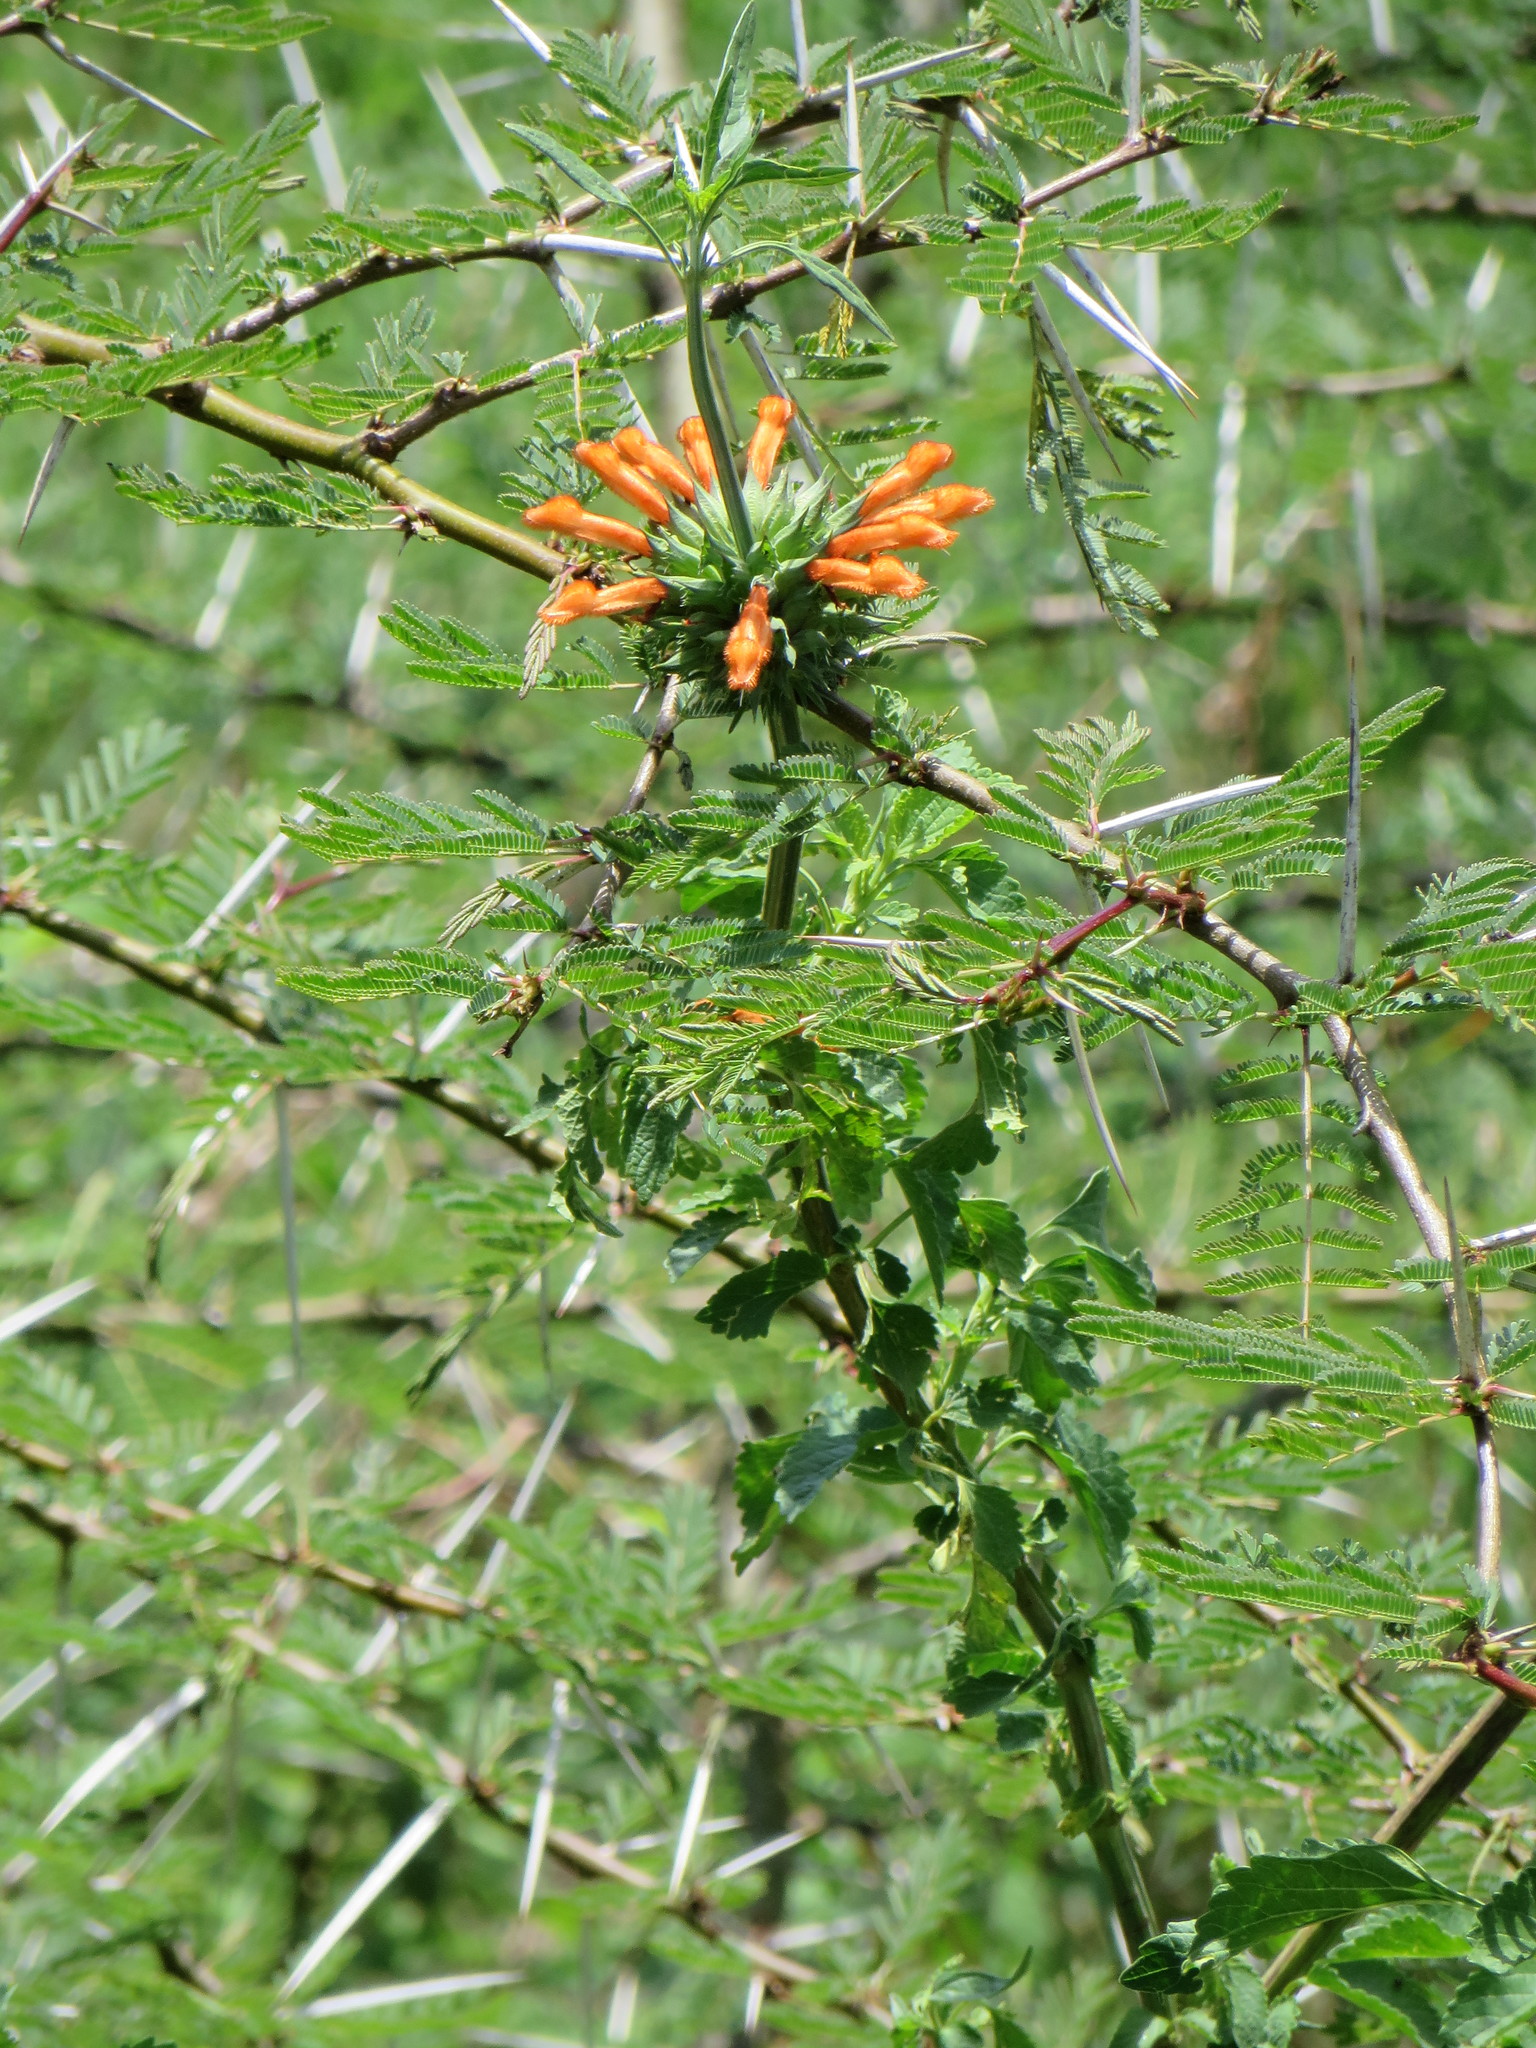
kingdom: Plantae
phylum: Tracheophyta
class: Magnoliopsida
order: Lamiales
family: Lamiaceae
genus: Leonotis
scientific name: Leonotis nepetifolia
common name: Christmas candlestick
